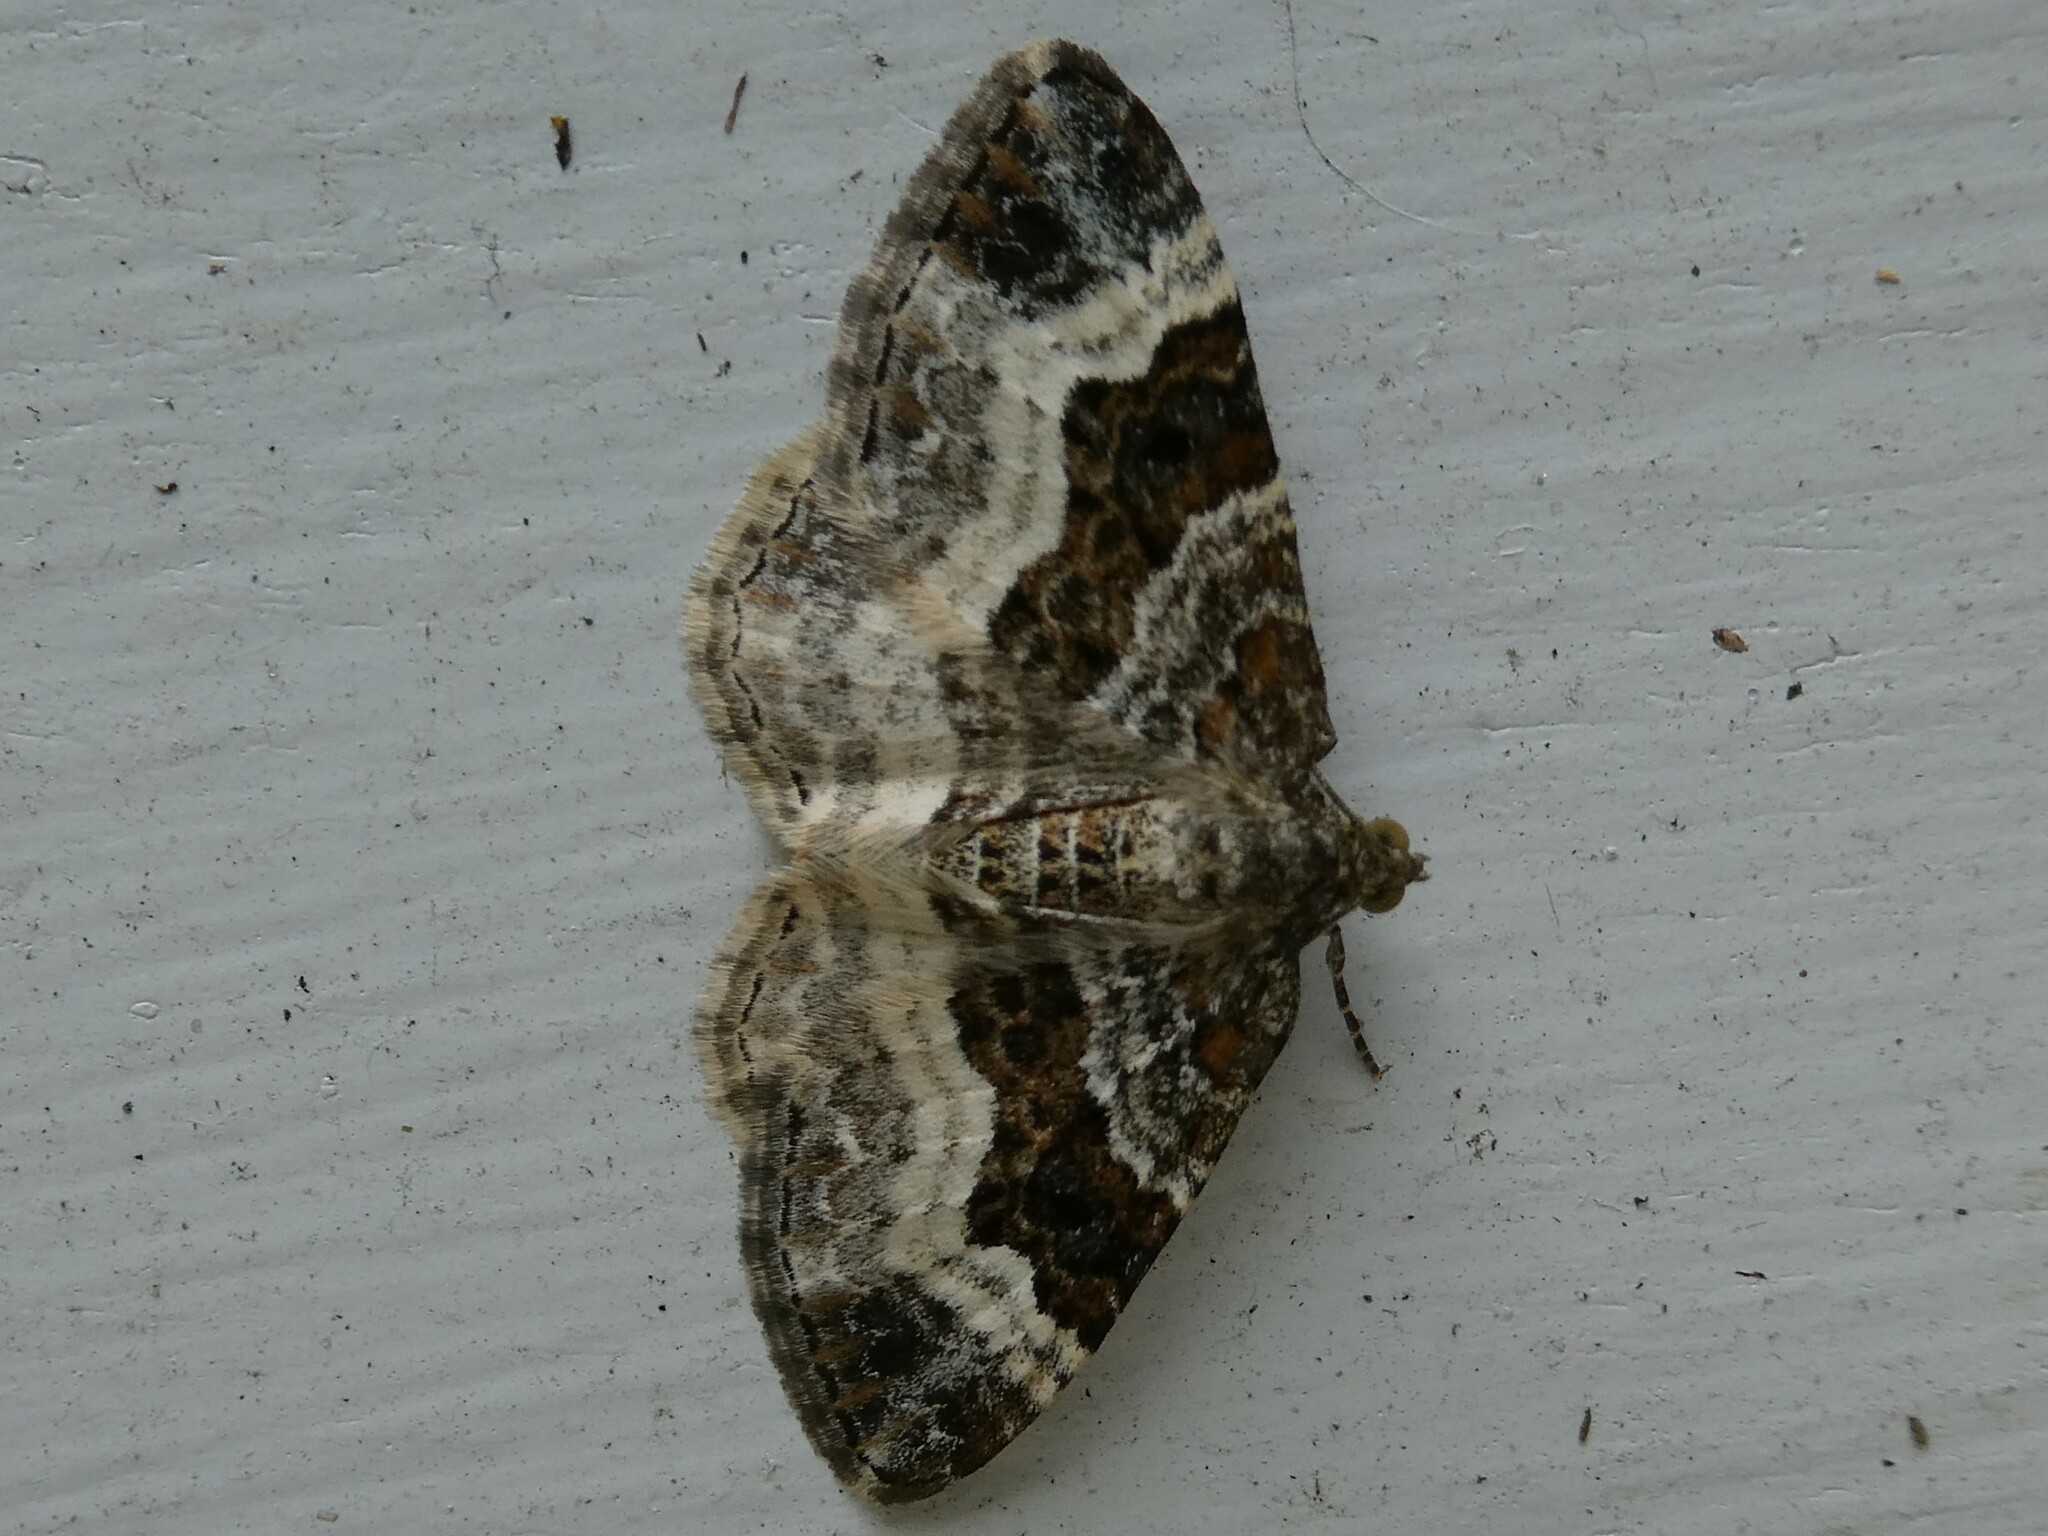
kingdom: Animalia
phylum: Arthropoda
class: Insecta
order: Lepidoptera
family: Geometridae
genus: Epirrhoe
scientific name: Epirrhoe alternata
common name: Common carpet
